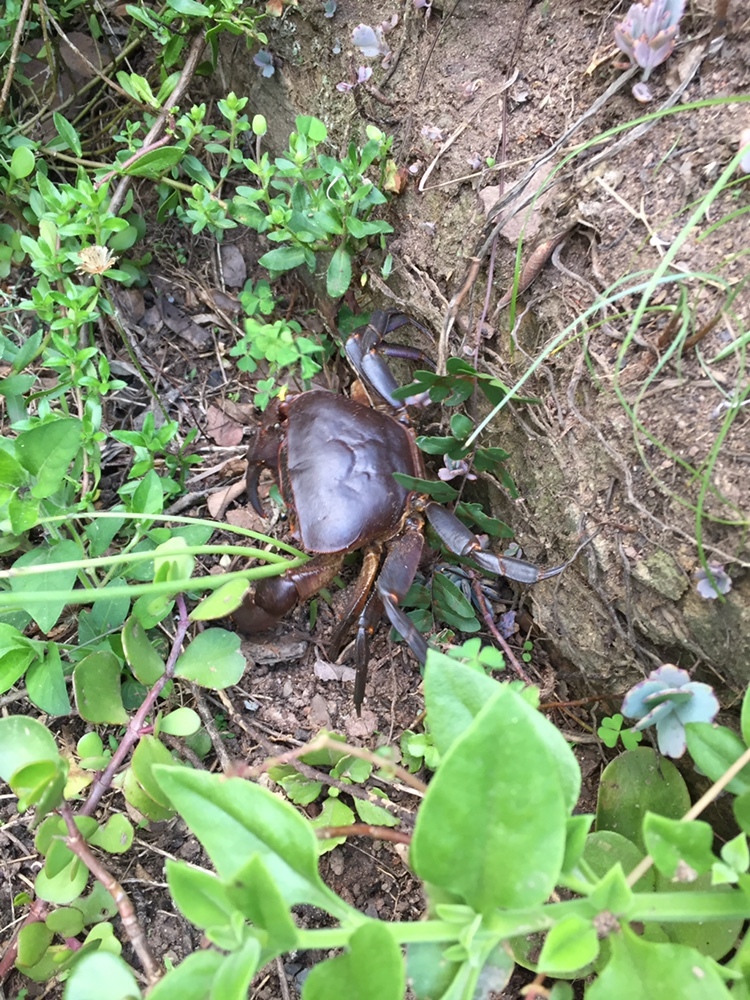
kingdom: Animalia
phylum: Arthropoda
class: Malacostraca
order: Decapoda
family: Potamonautidae
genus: Potamonautes
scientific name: Potamonautes sidneyi
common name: Natal river crab
